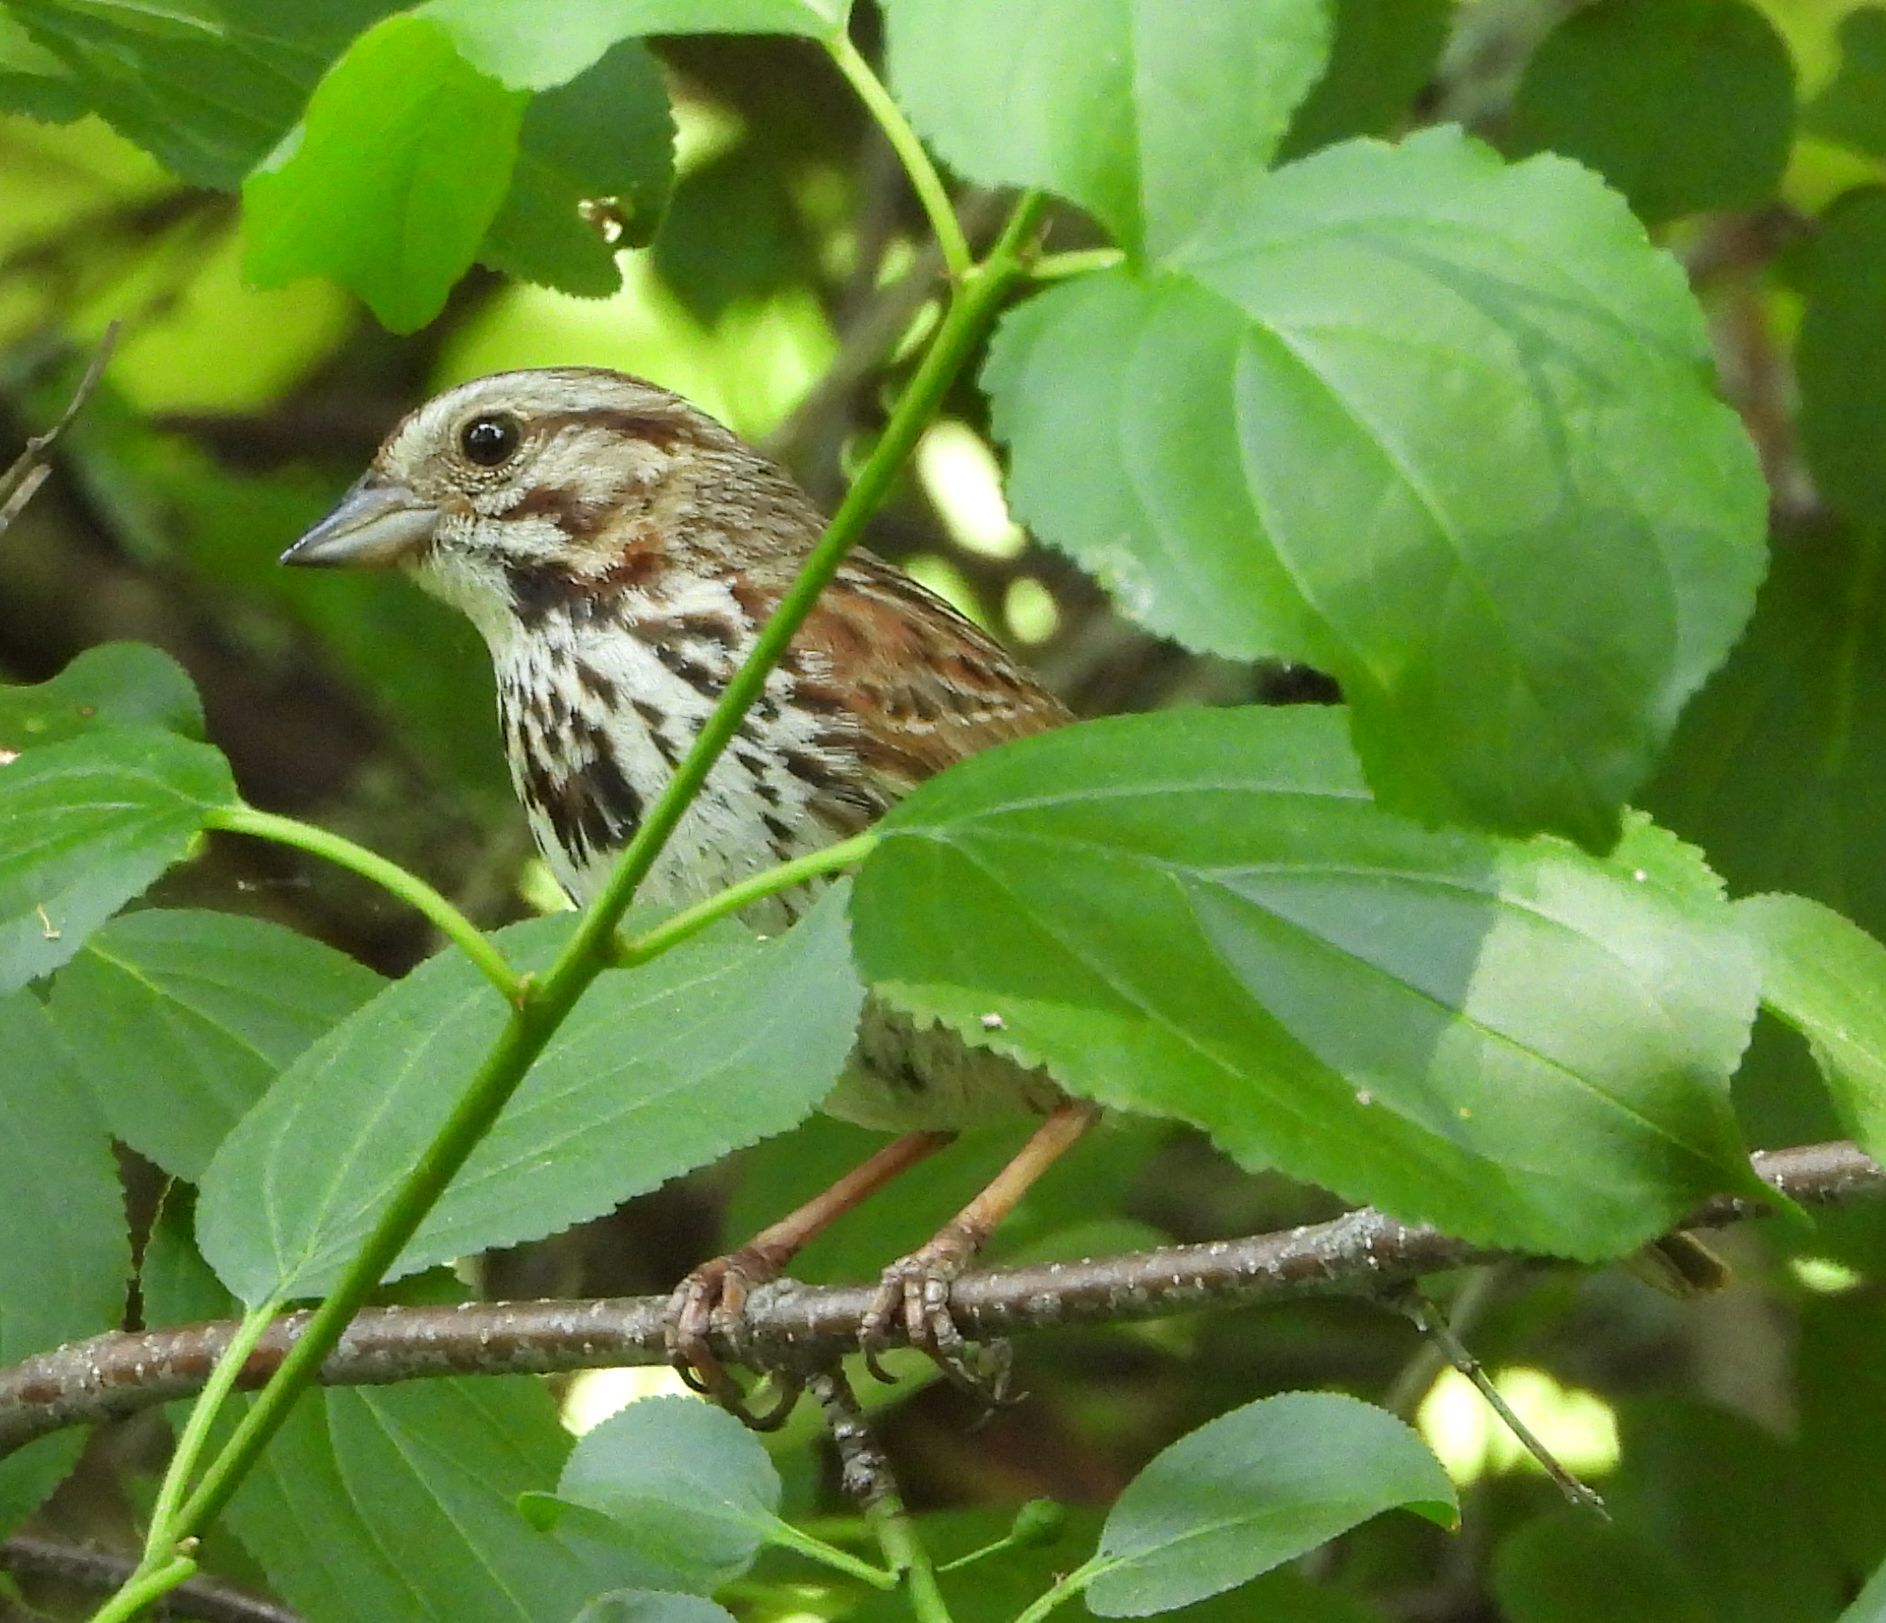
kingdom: Animalia
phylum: Chordata
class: Aves
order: Passeriformes
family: Passerellidae
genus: Melospiza
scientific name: Melospiza melodia
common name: Song sparrow
